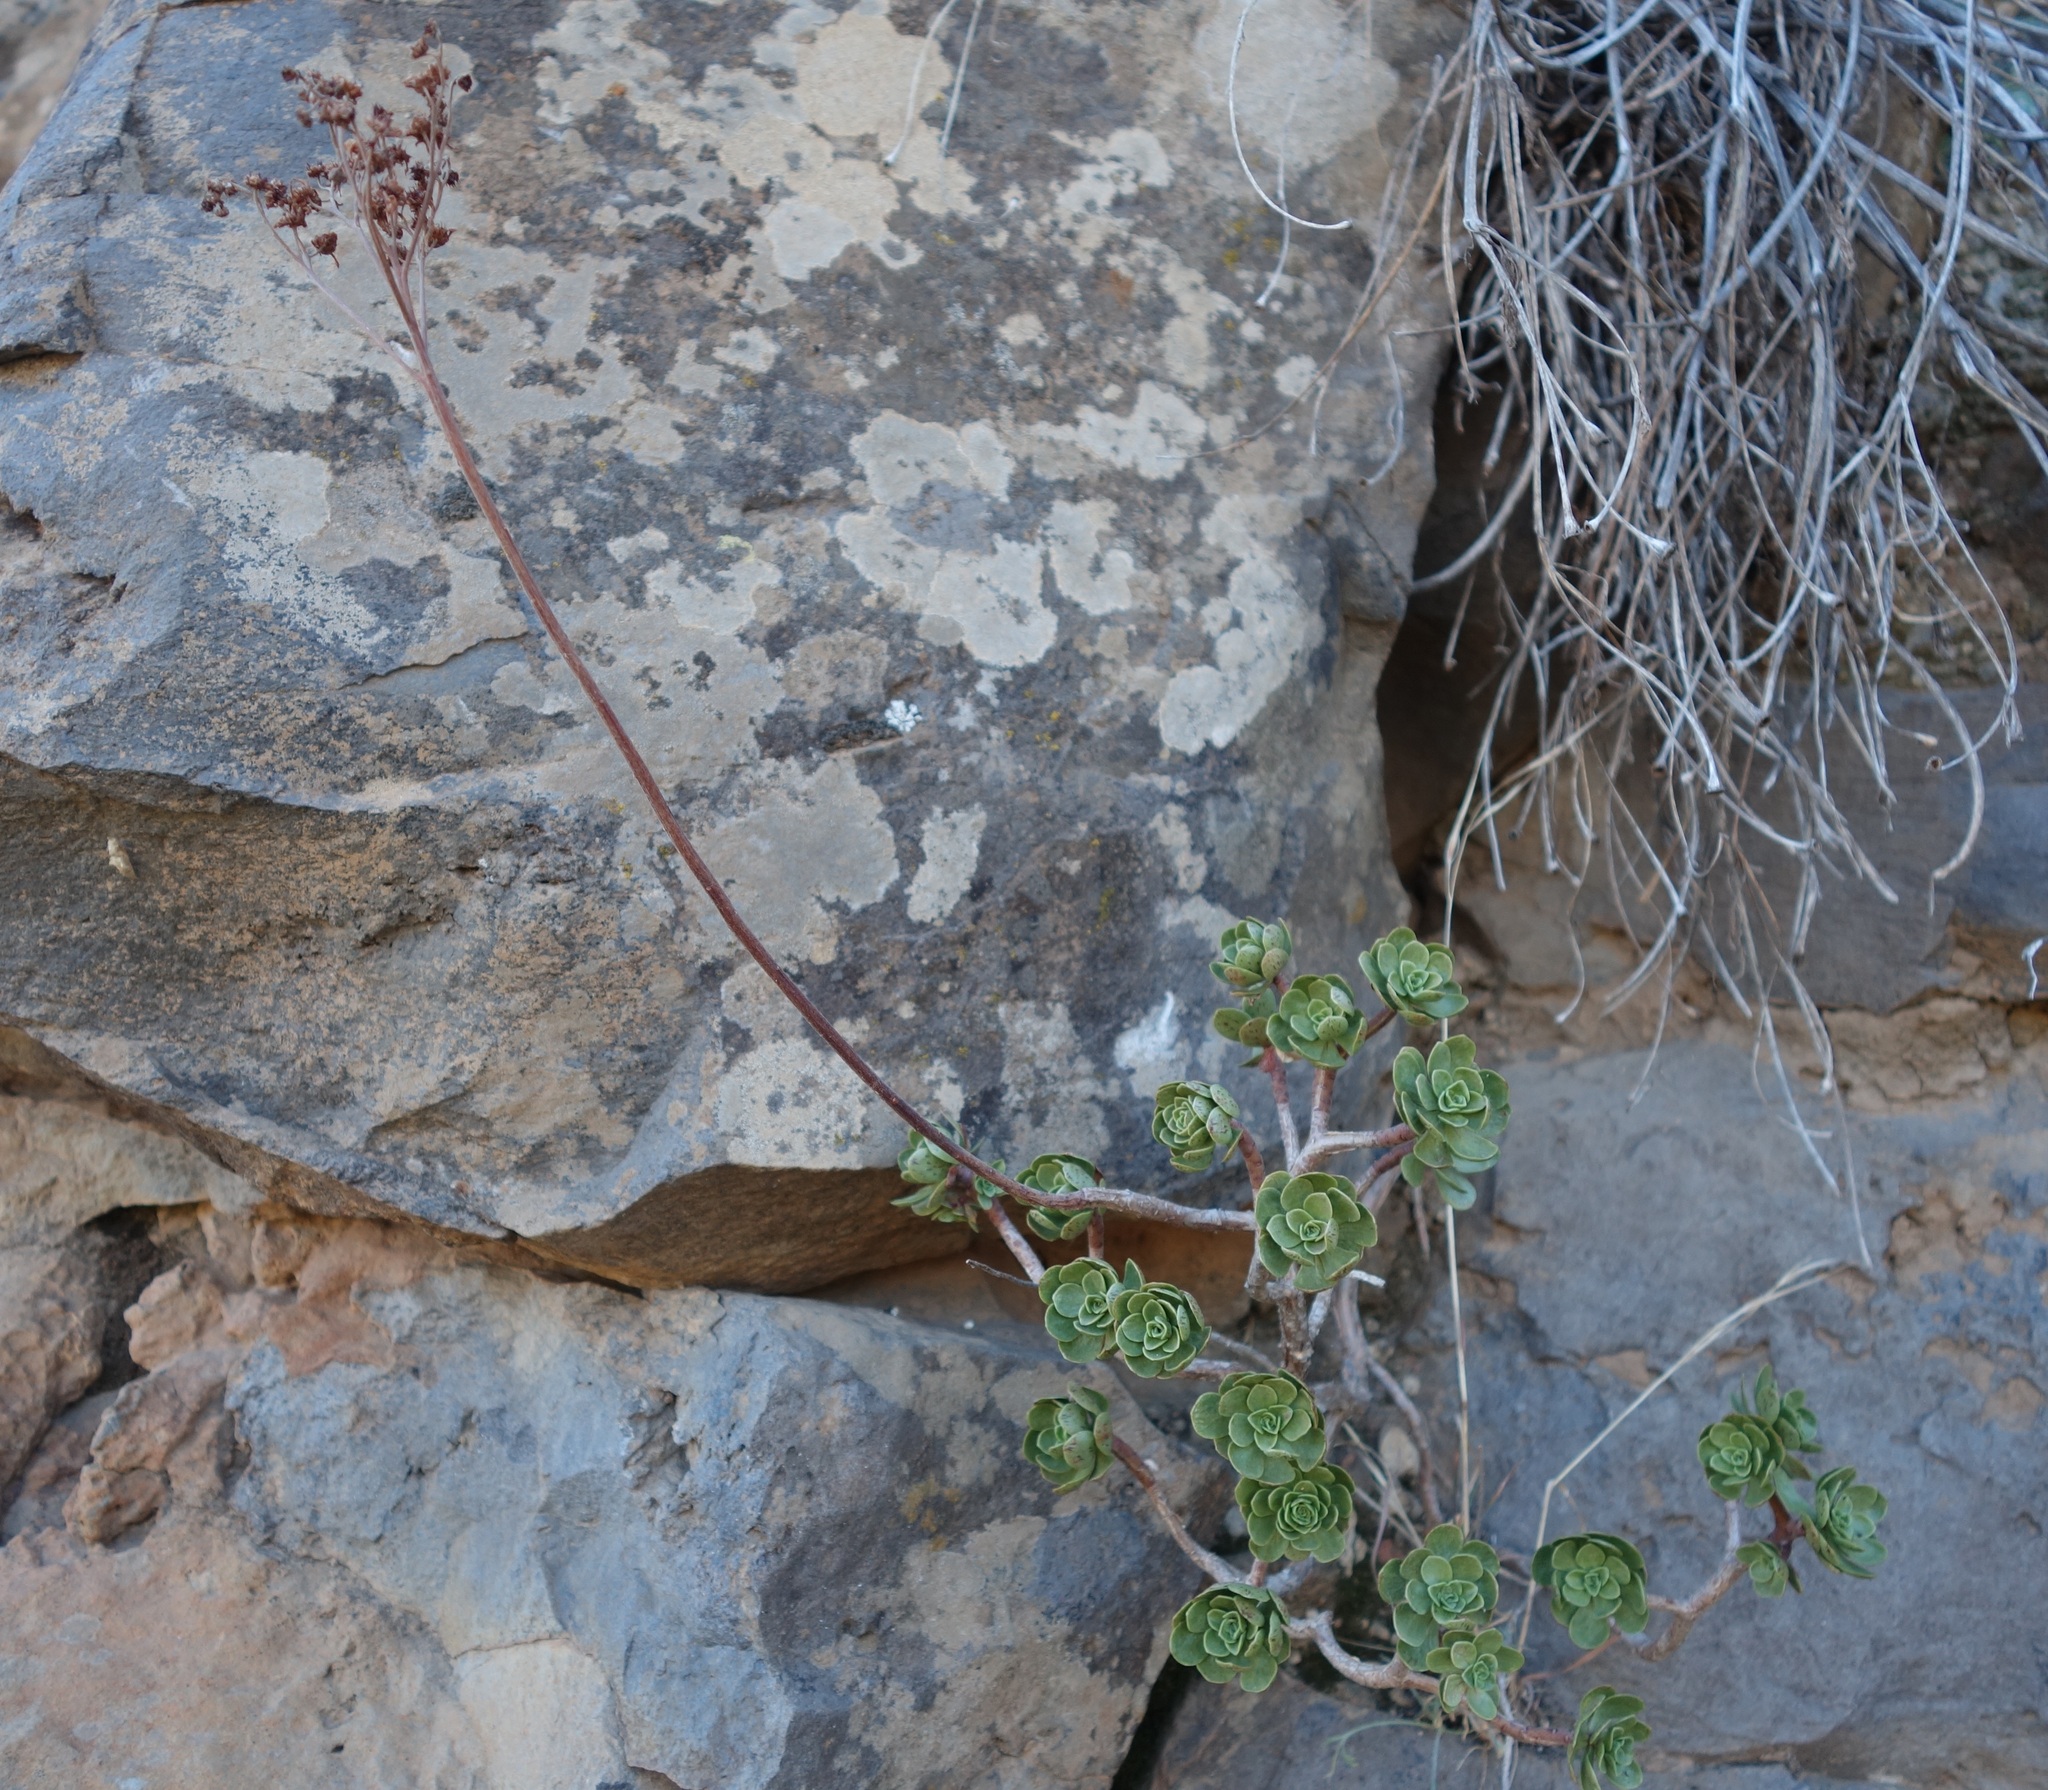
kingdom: Plantae
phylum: Tracheophyta
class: Magnoliopsida
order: Saxifragales
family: Crassulaceae
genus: Aeonium
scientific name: Aeonium spathulatum
